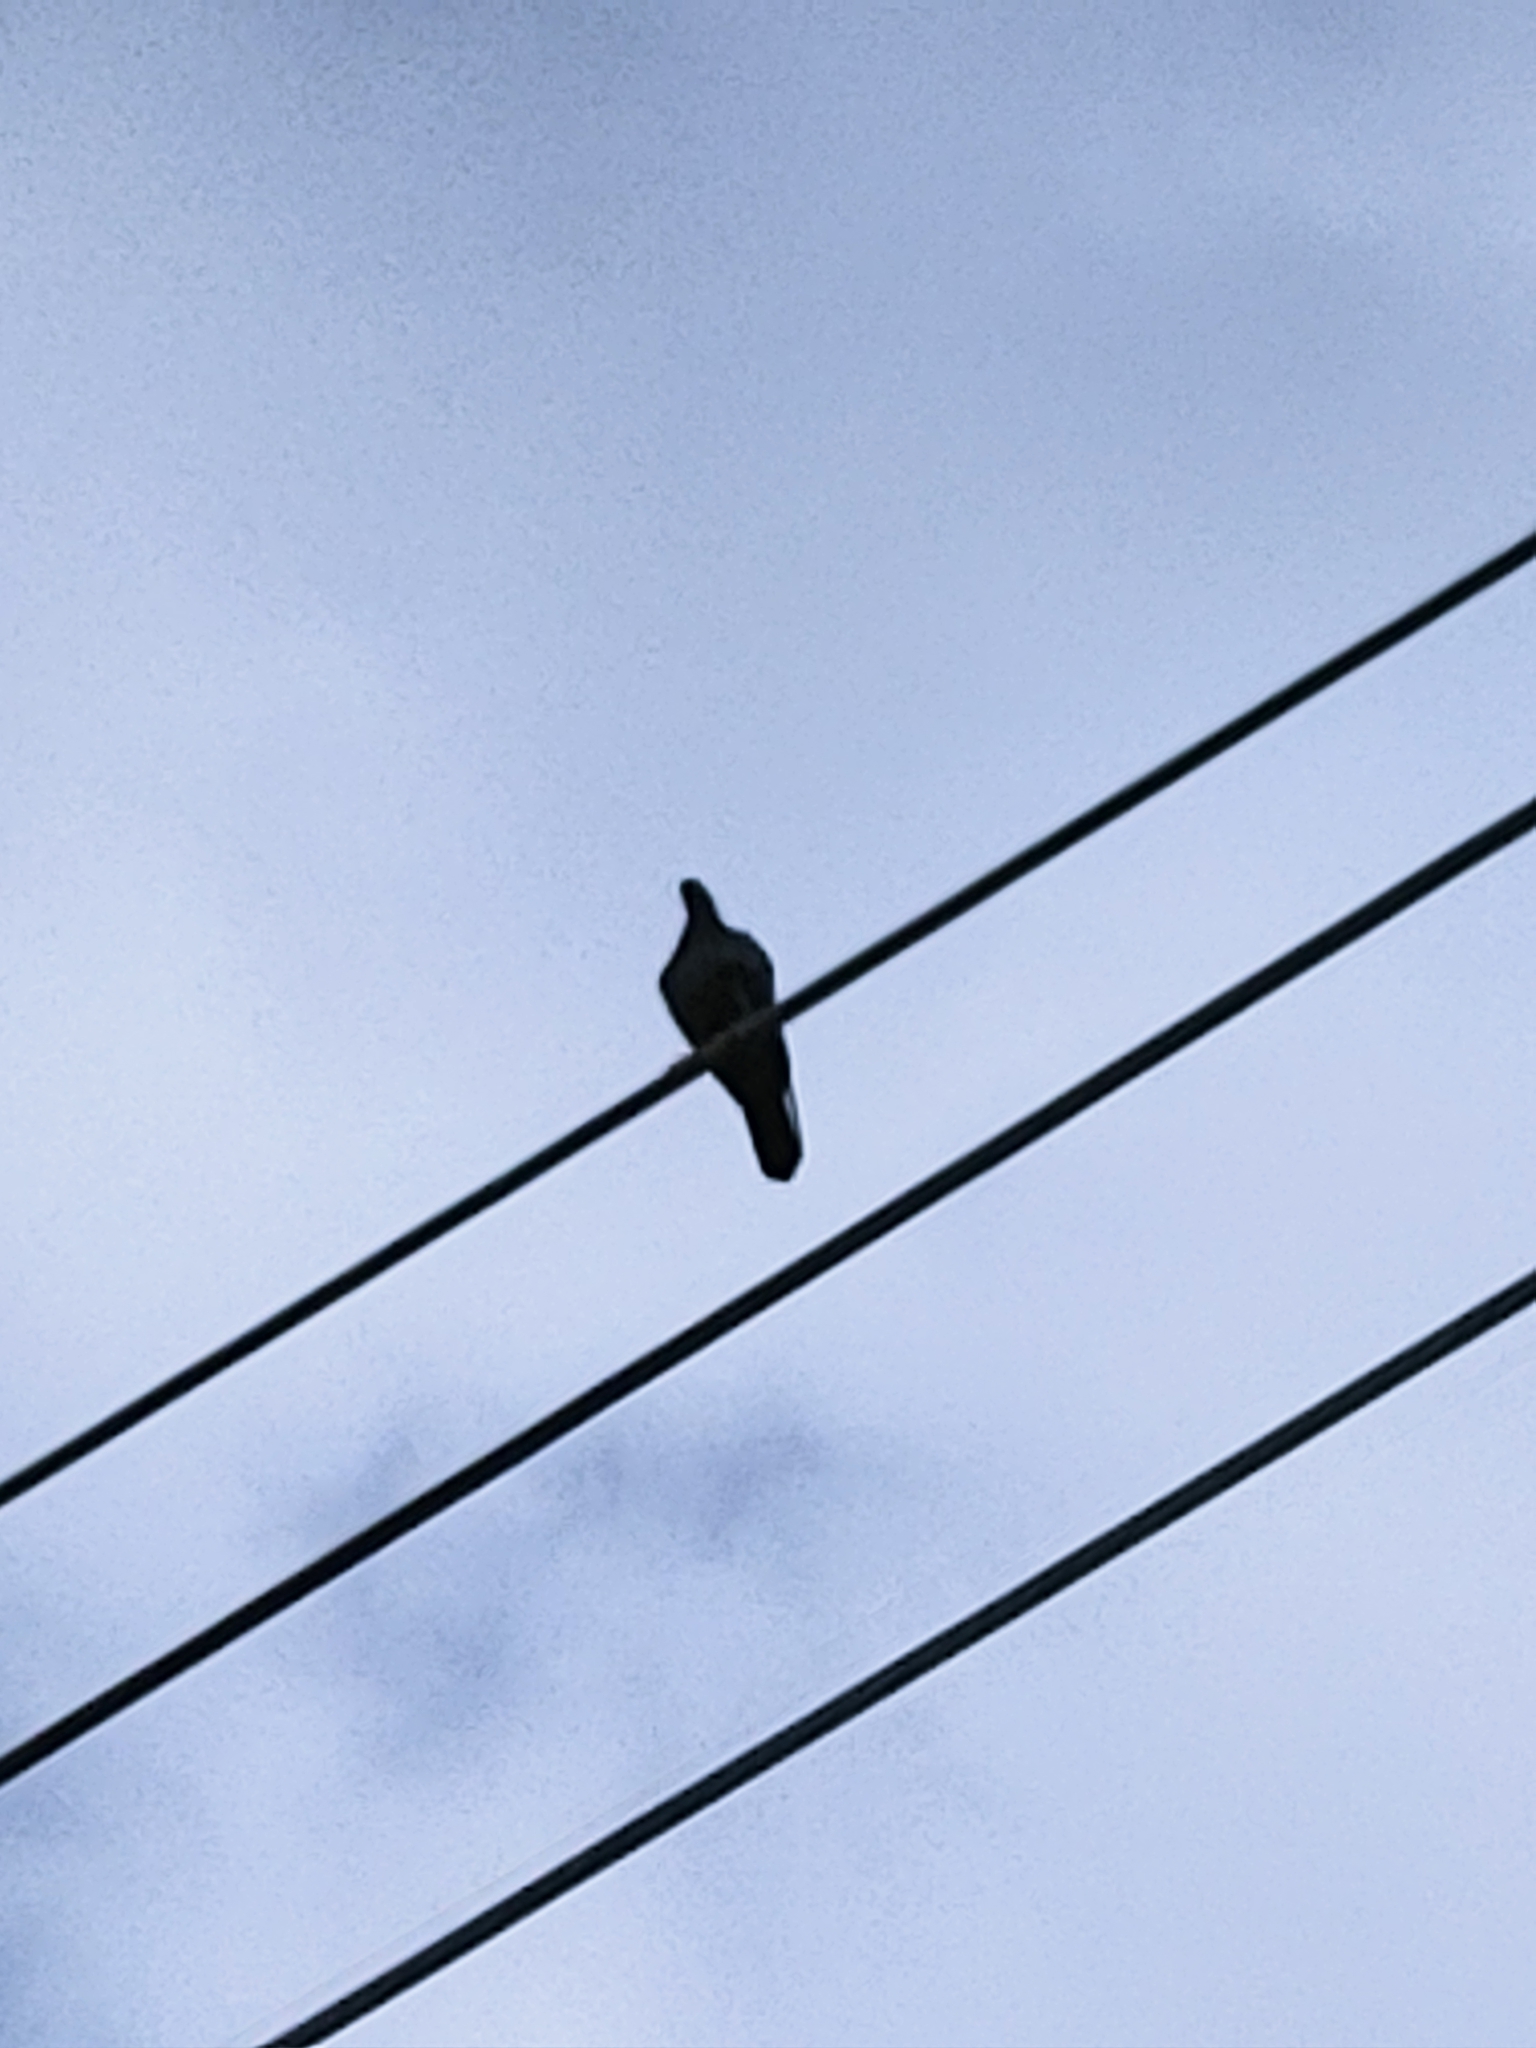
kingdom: Animalia
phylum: Chordata
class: Aves
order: Columbiformes
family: Columbidae
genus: Columba
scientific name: Columba livia
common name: Rock pigeon
